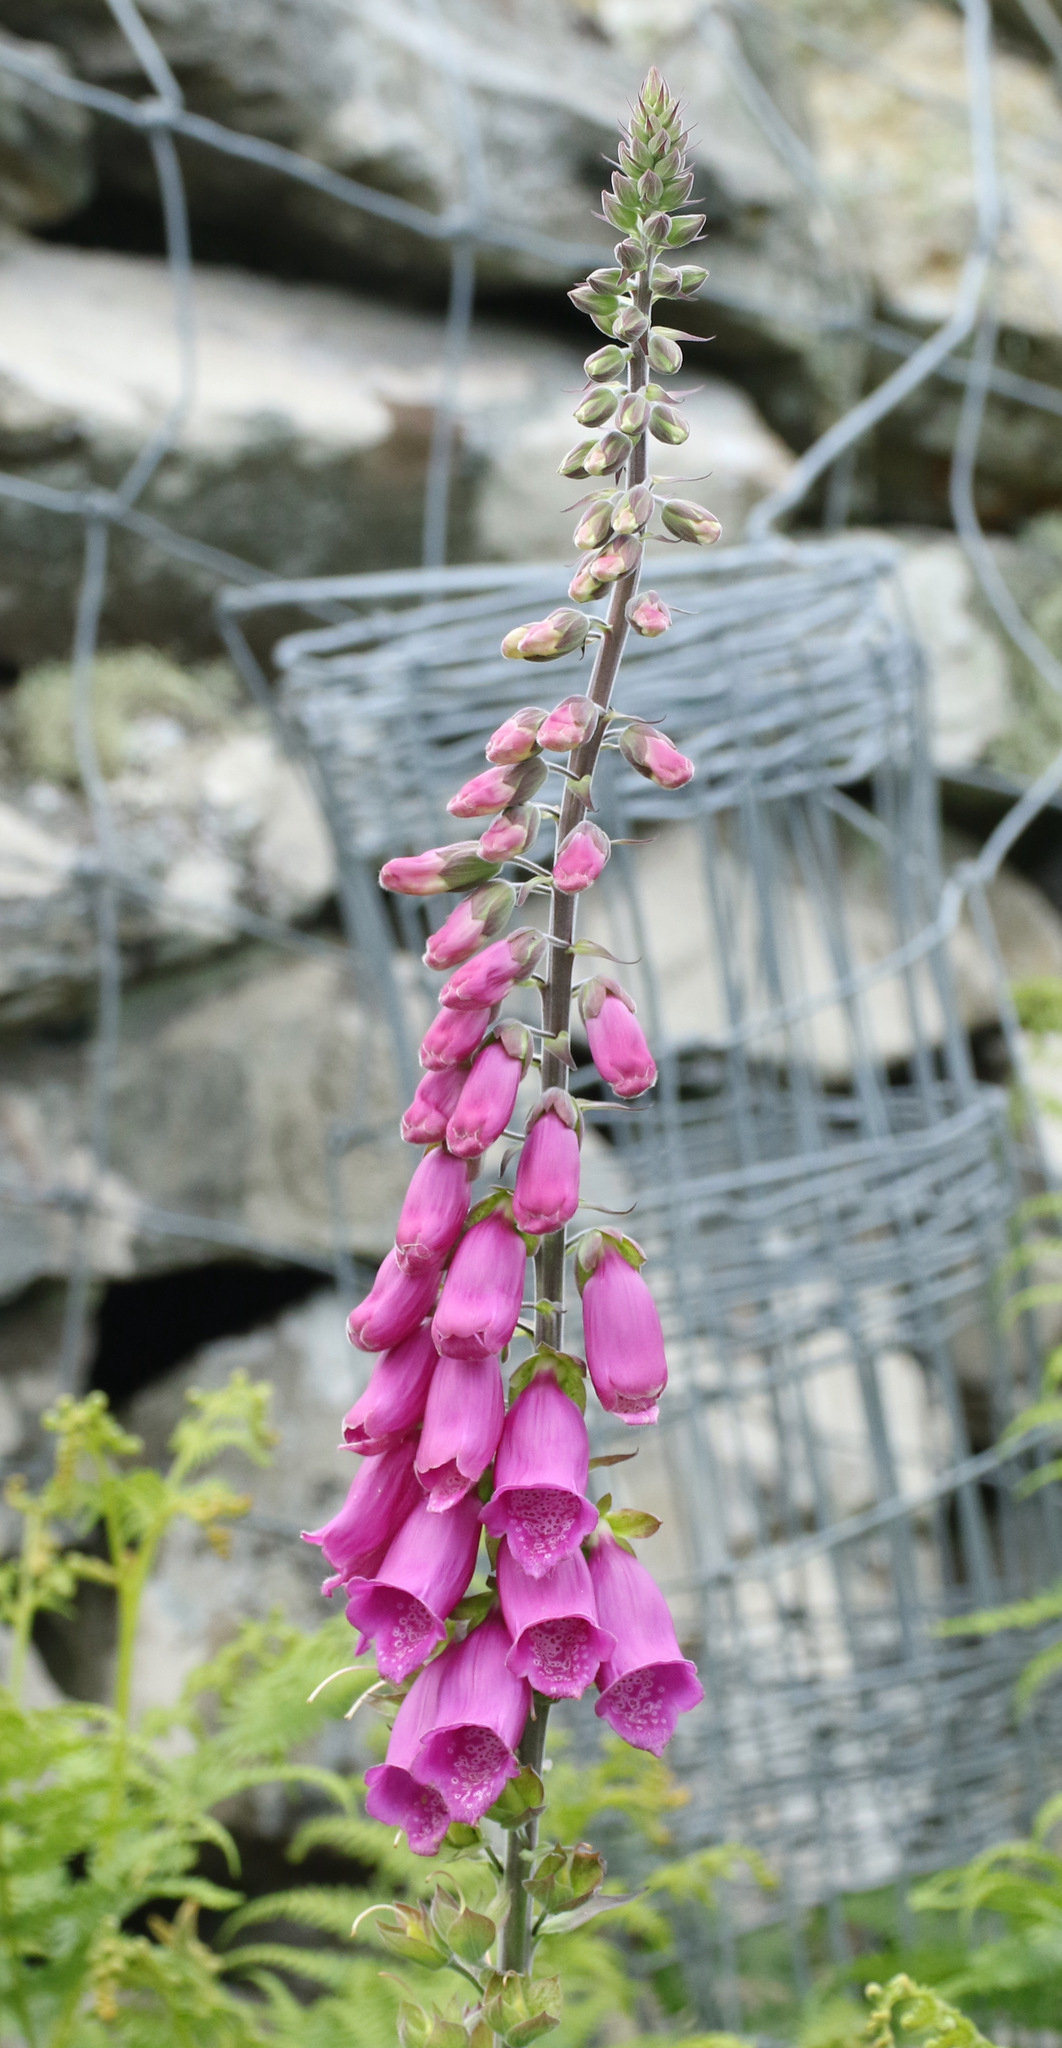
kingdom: Plantae
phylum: Tracheophyta
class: Magnoliopsida
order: Lamiales
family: Plantaginaceae
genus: Digitalis
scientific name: Digitalis purpurea
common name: Foxglove
